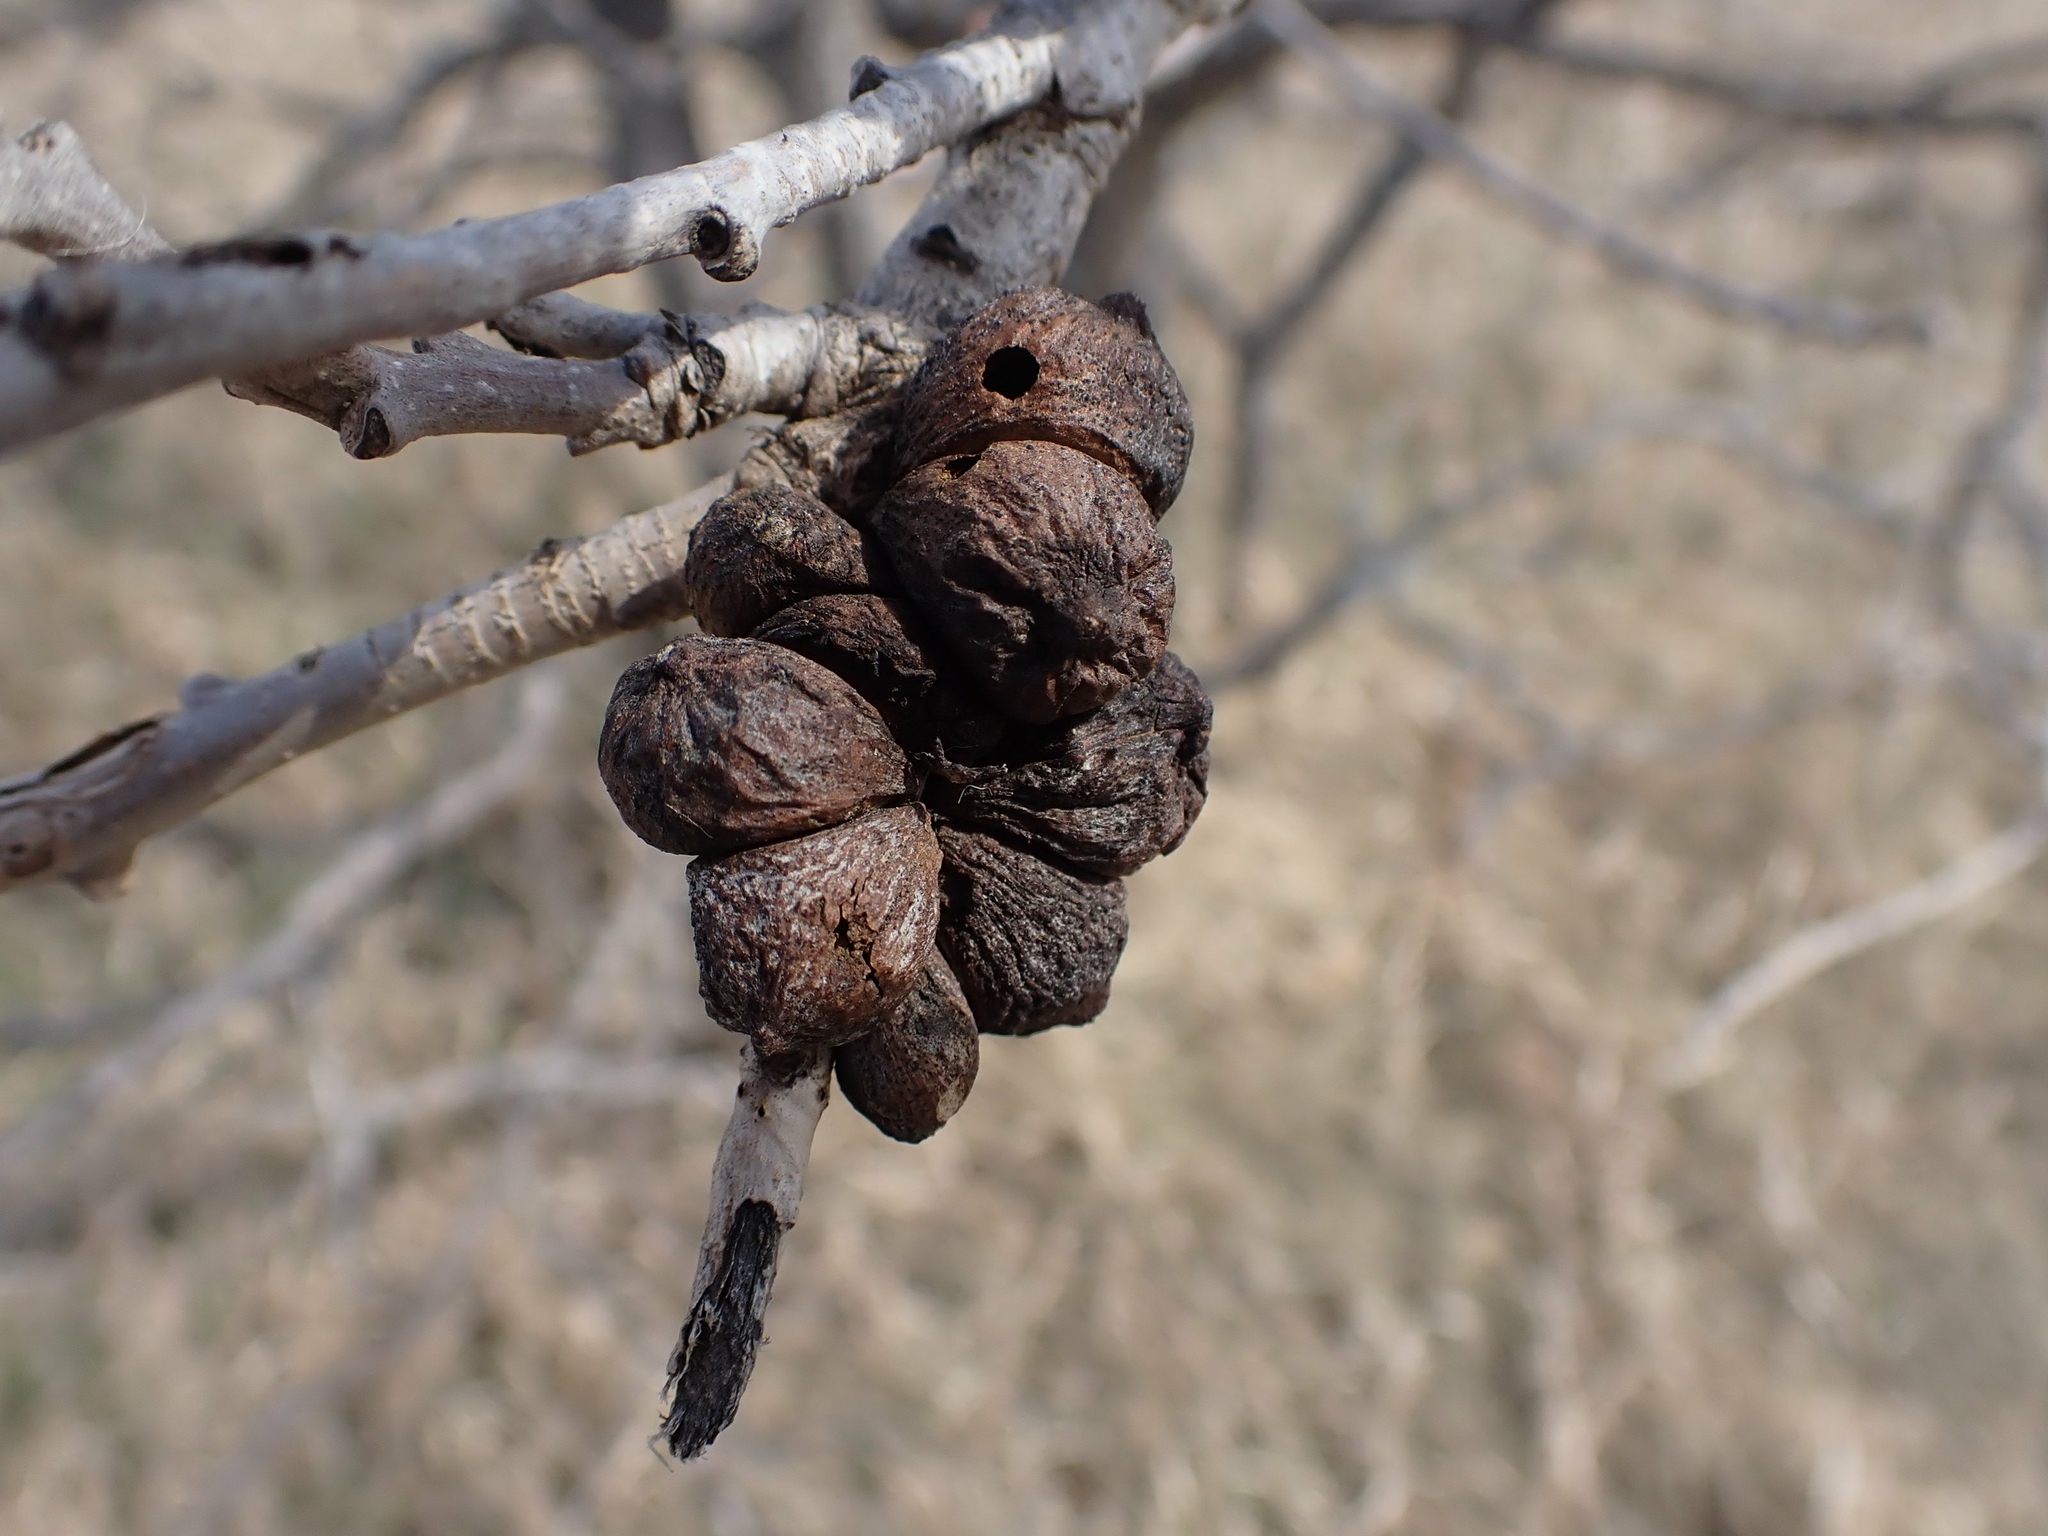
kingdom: Animalia
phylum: Arthropoda
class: Insecta
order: Hymenoptera
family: Cynipidae
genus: Disholcaspis
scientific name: Disholcaspis
